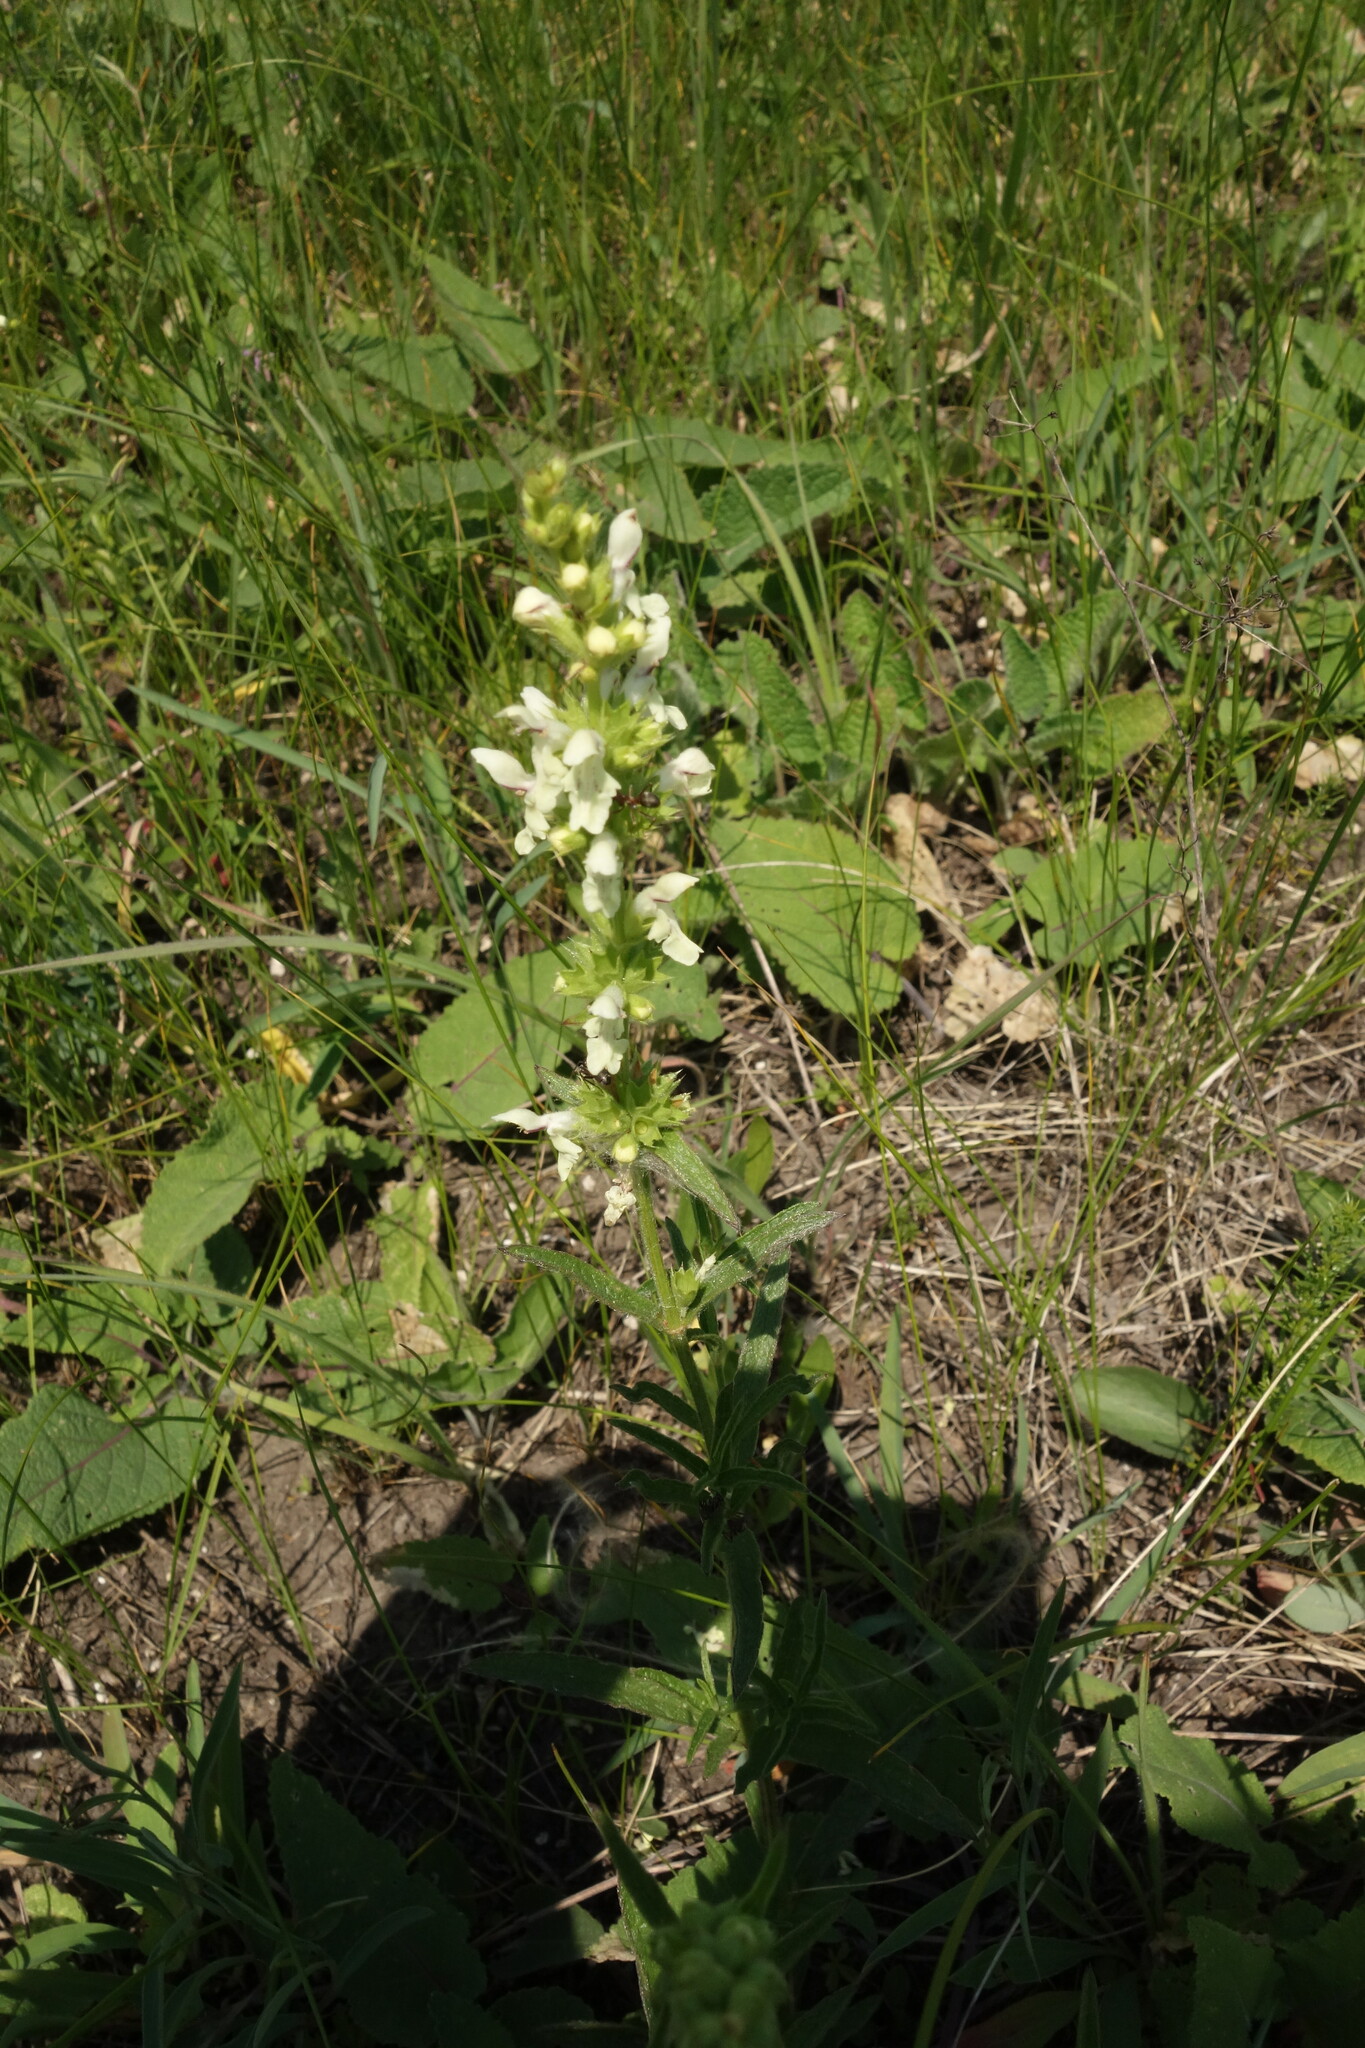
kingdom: Plantae
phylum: Tracheophyta
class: Magnoliopsida
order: Lamiales
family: Lamiaceae
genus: Stachys
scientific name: Stachys recta
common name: Perennial yellow-woundwort
